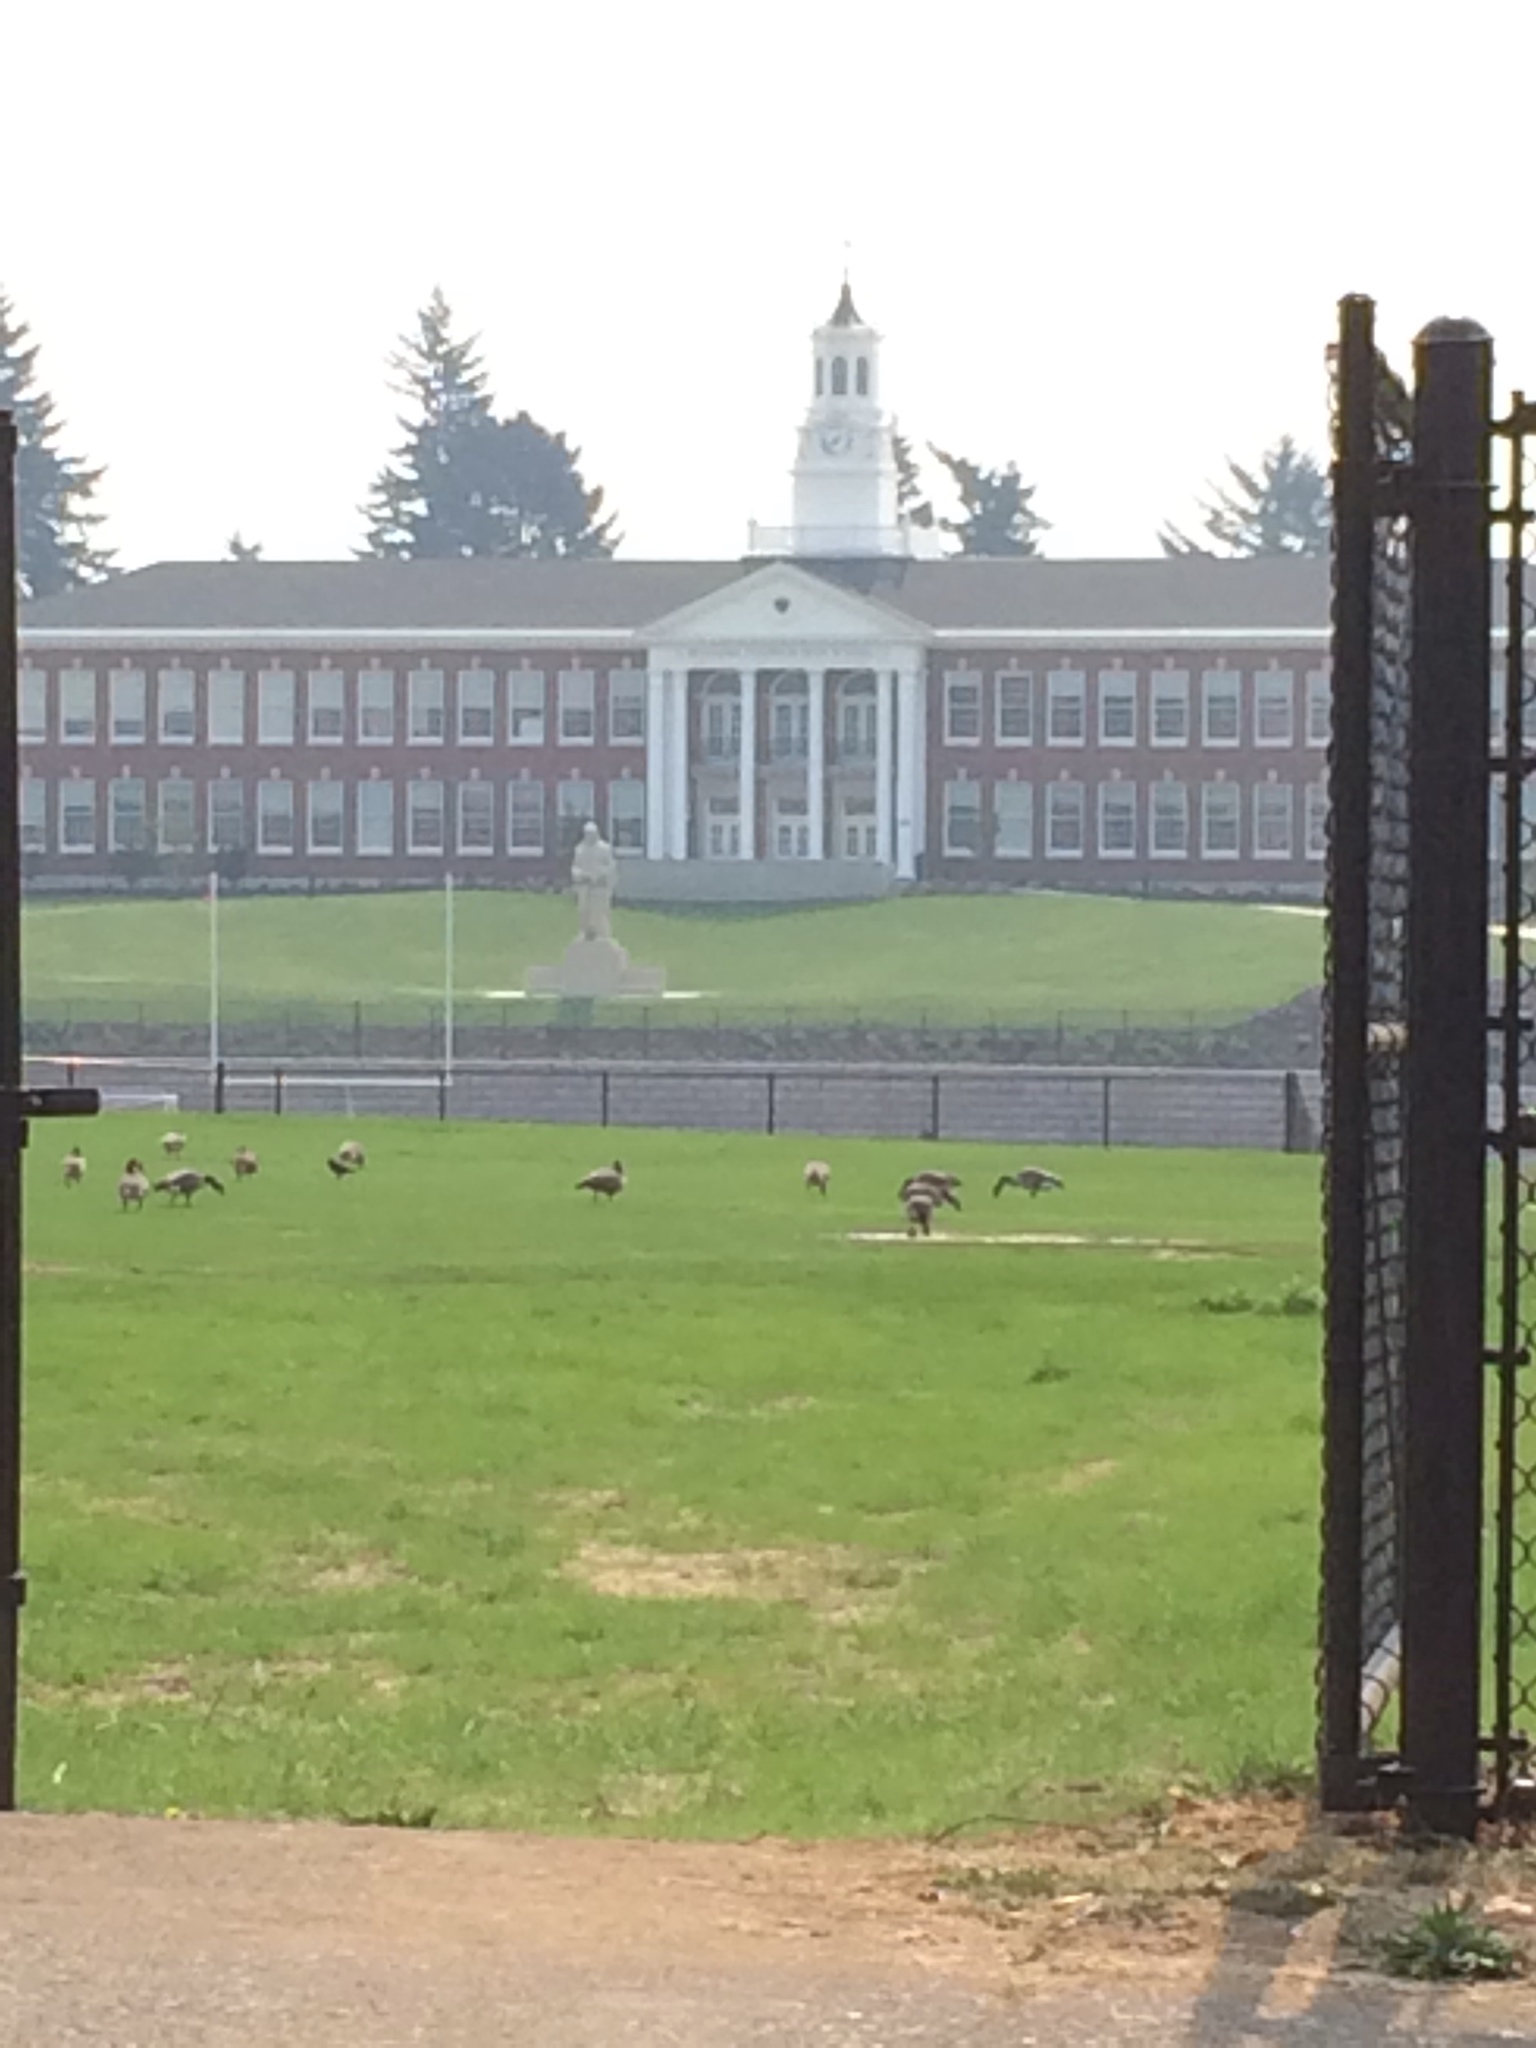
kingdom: Animalia
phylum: Chordata
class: Aves
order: Anseriformes
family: Anatidae
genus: Branta
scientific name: Branta canadensis
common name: Canada goose
